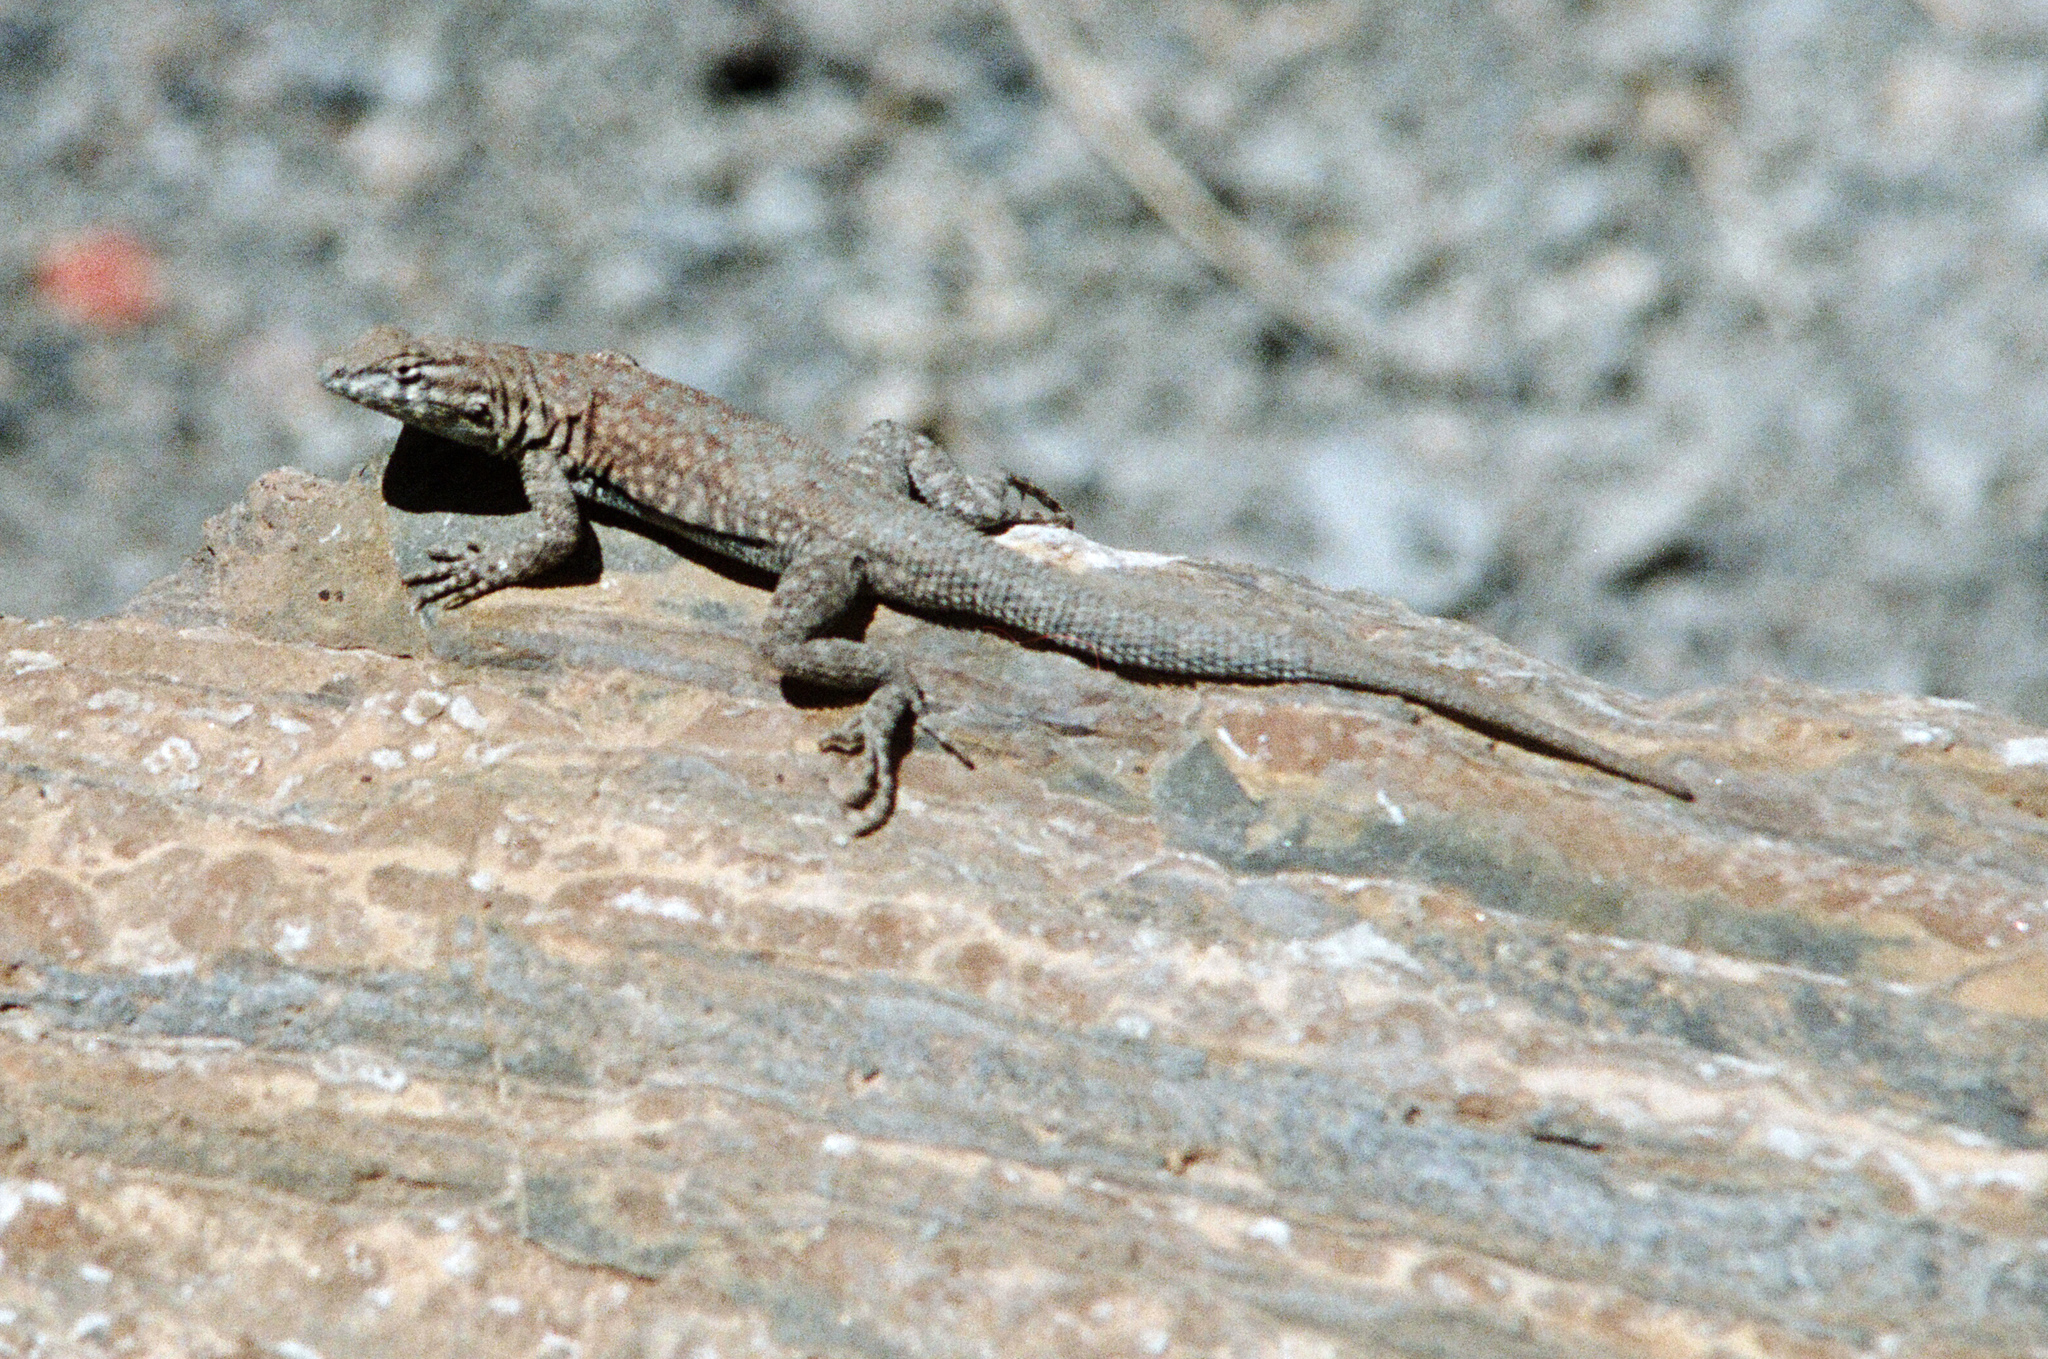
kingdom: Animalia
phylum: Chordata
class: Squamata
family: Phrynosomatidae
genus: Uta
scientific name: Uta stansburiana
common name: Side-blotched lizard
